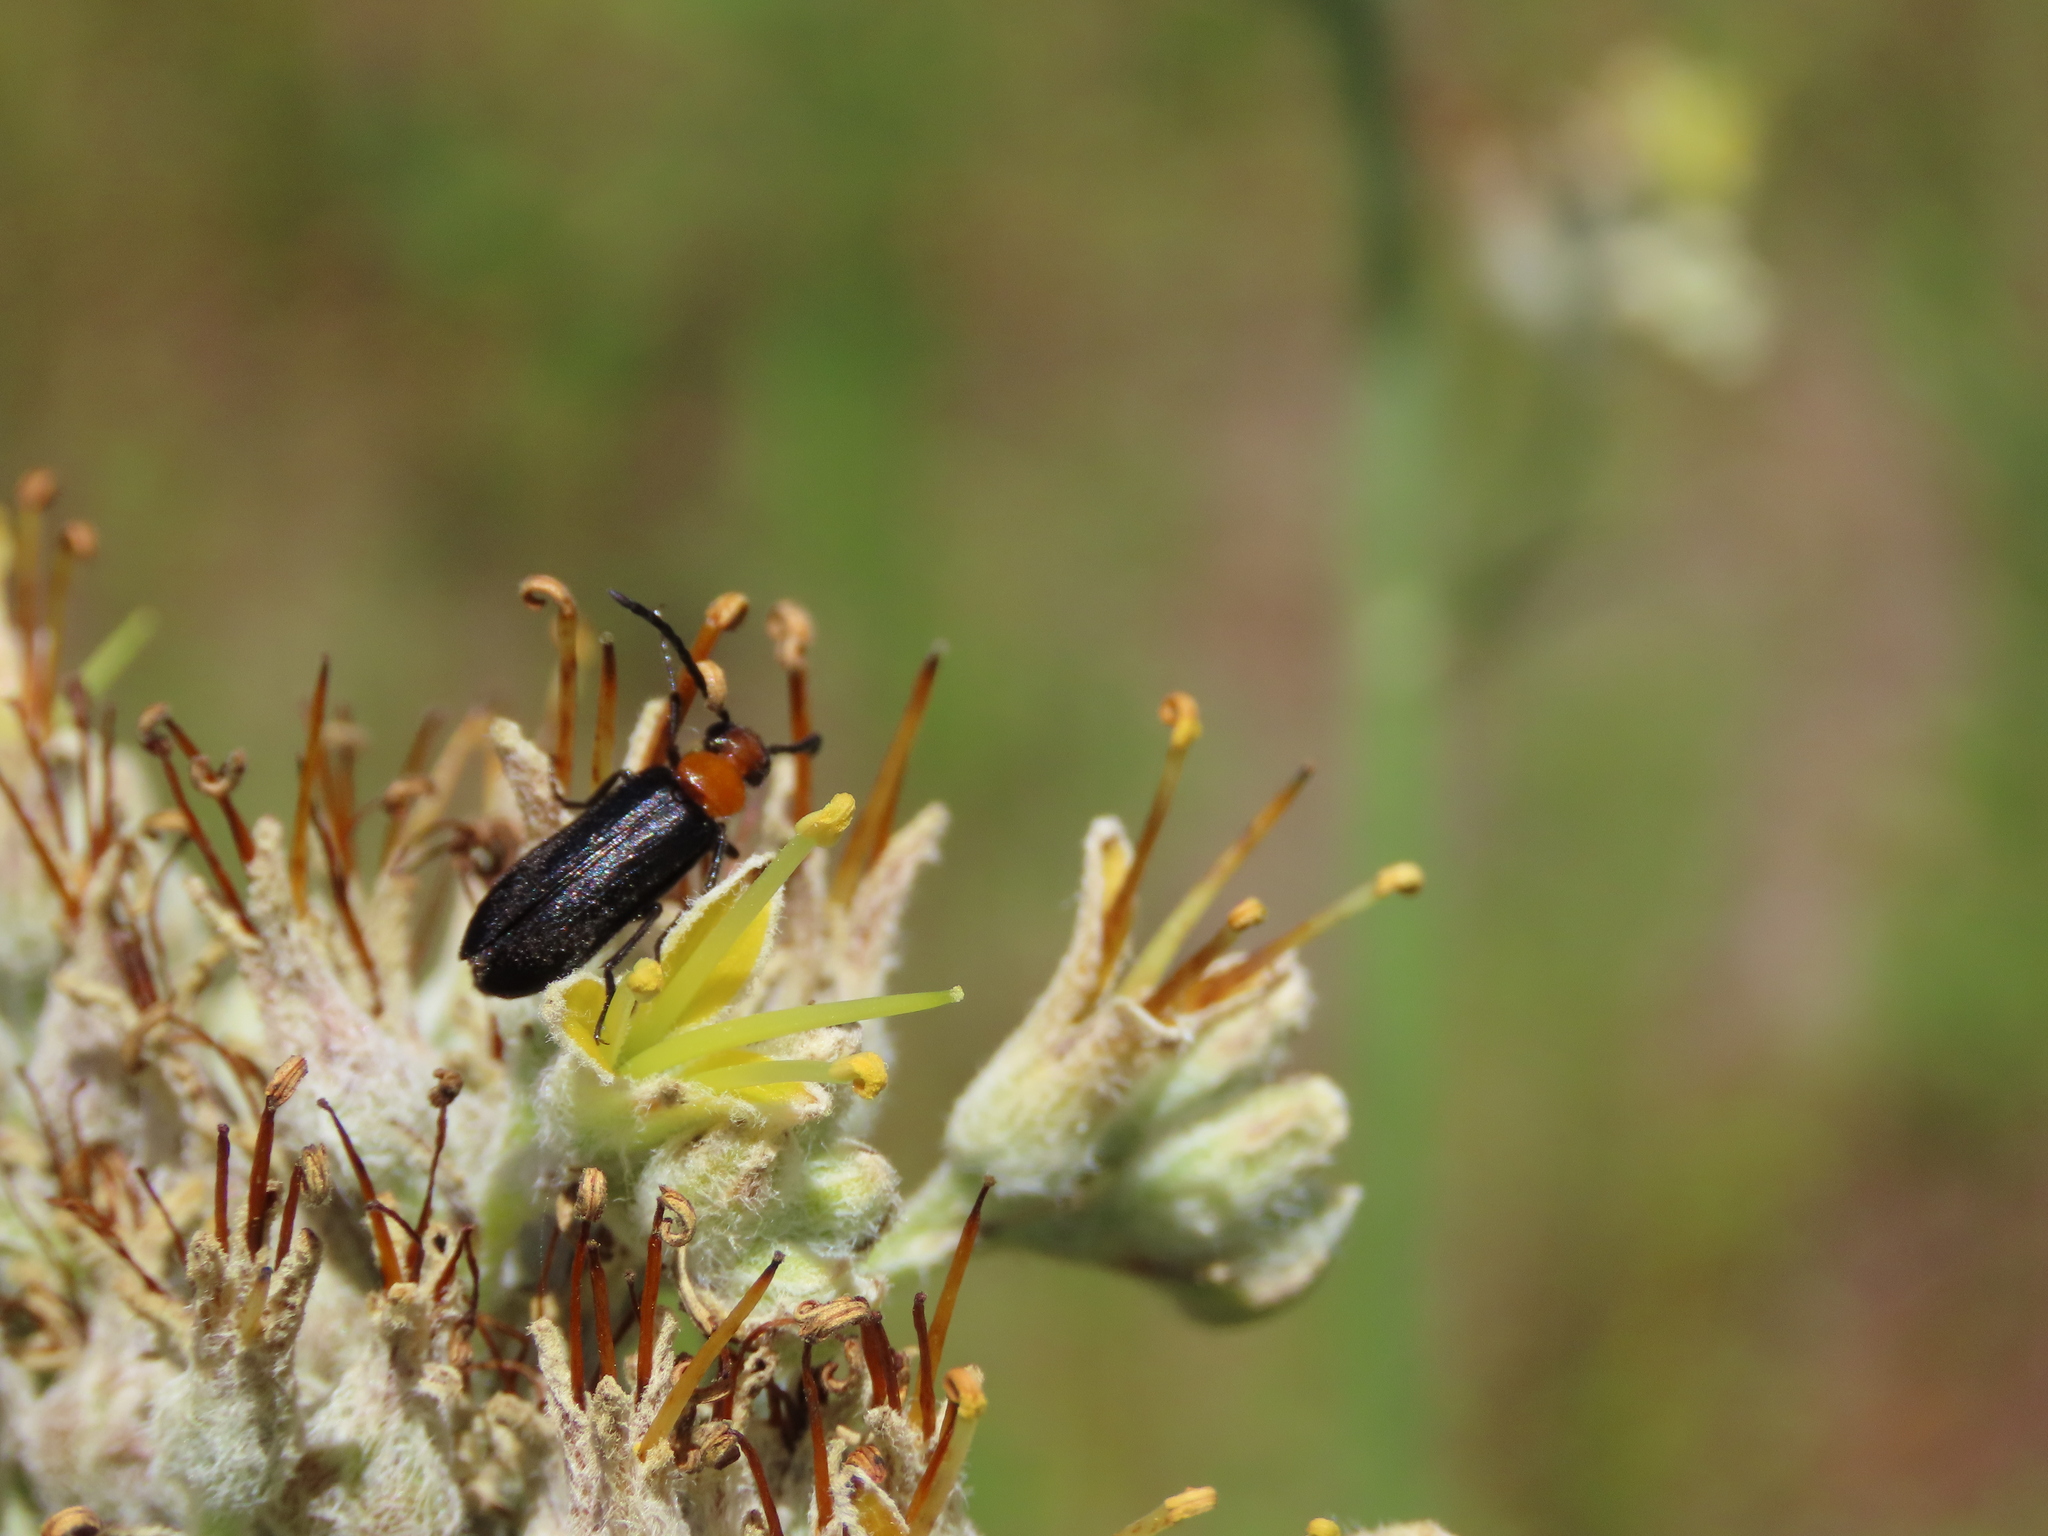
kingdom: Animalia
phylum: Arthropoda
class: Insecta
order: Coleoptera
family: Meloidae
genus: Nemognatha
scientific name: Nemognatha nemorensis
